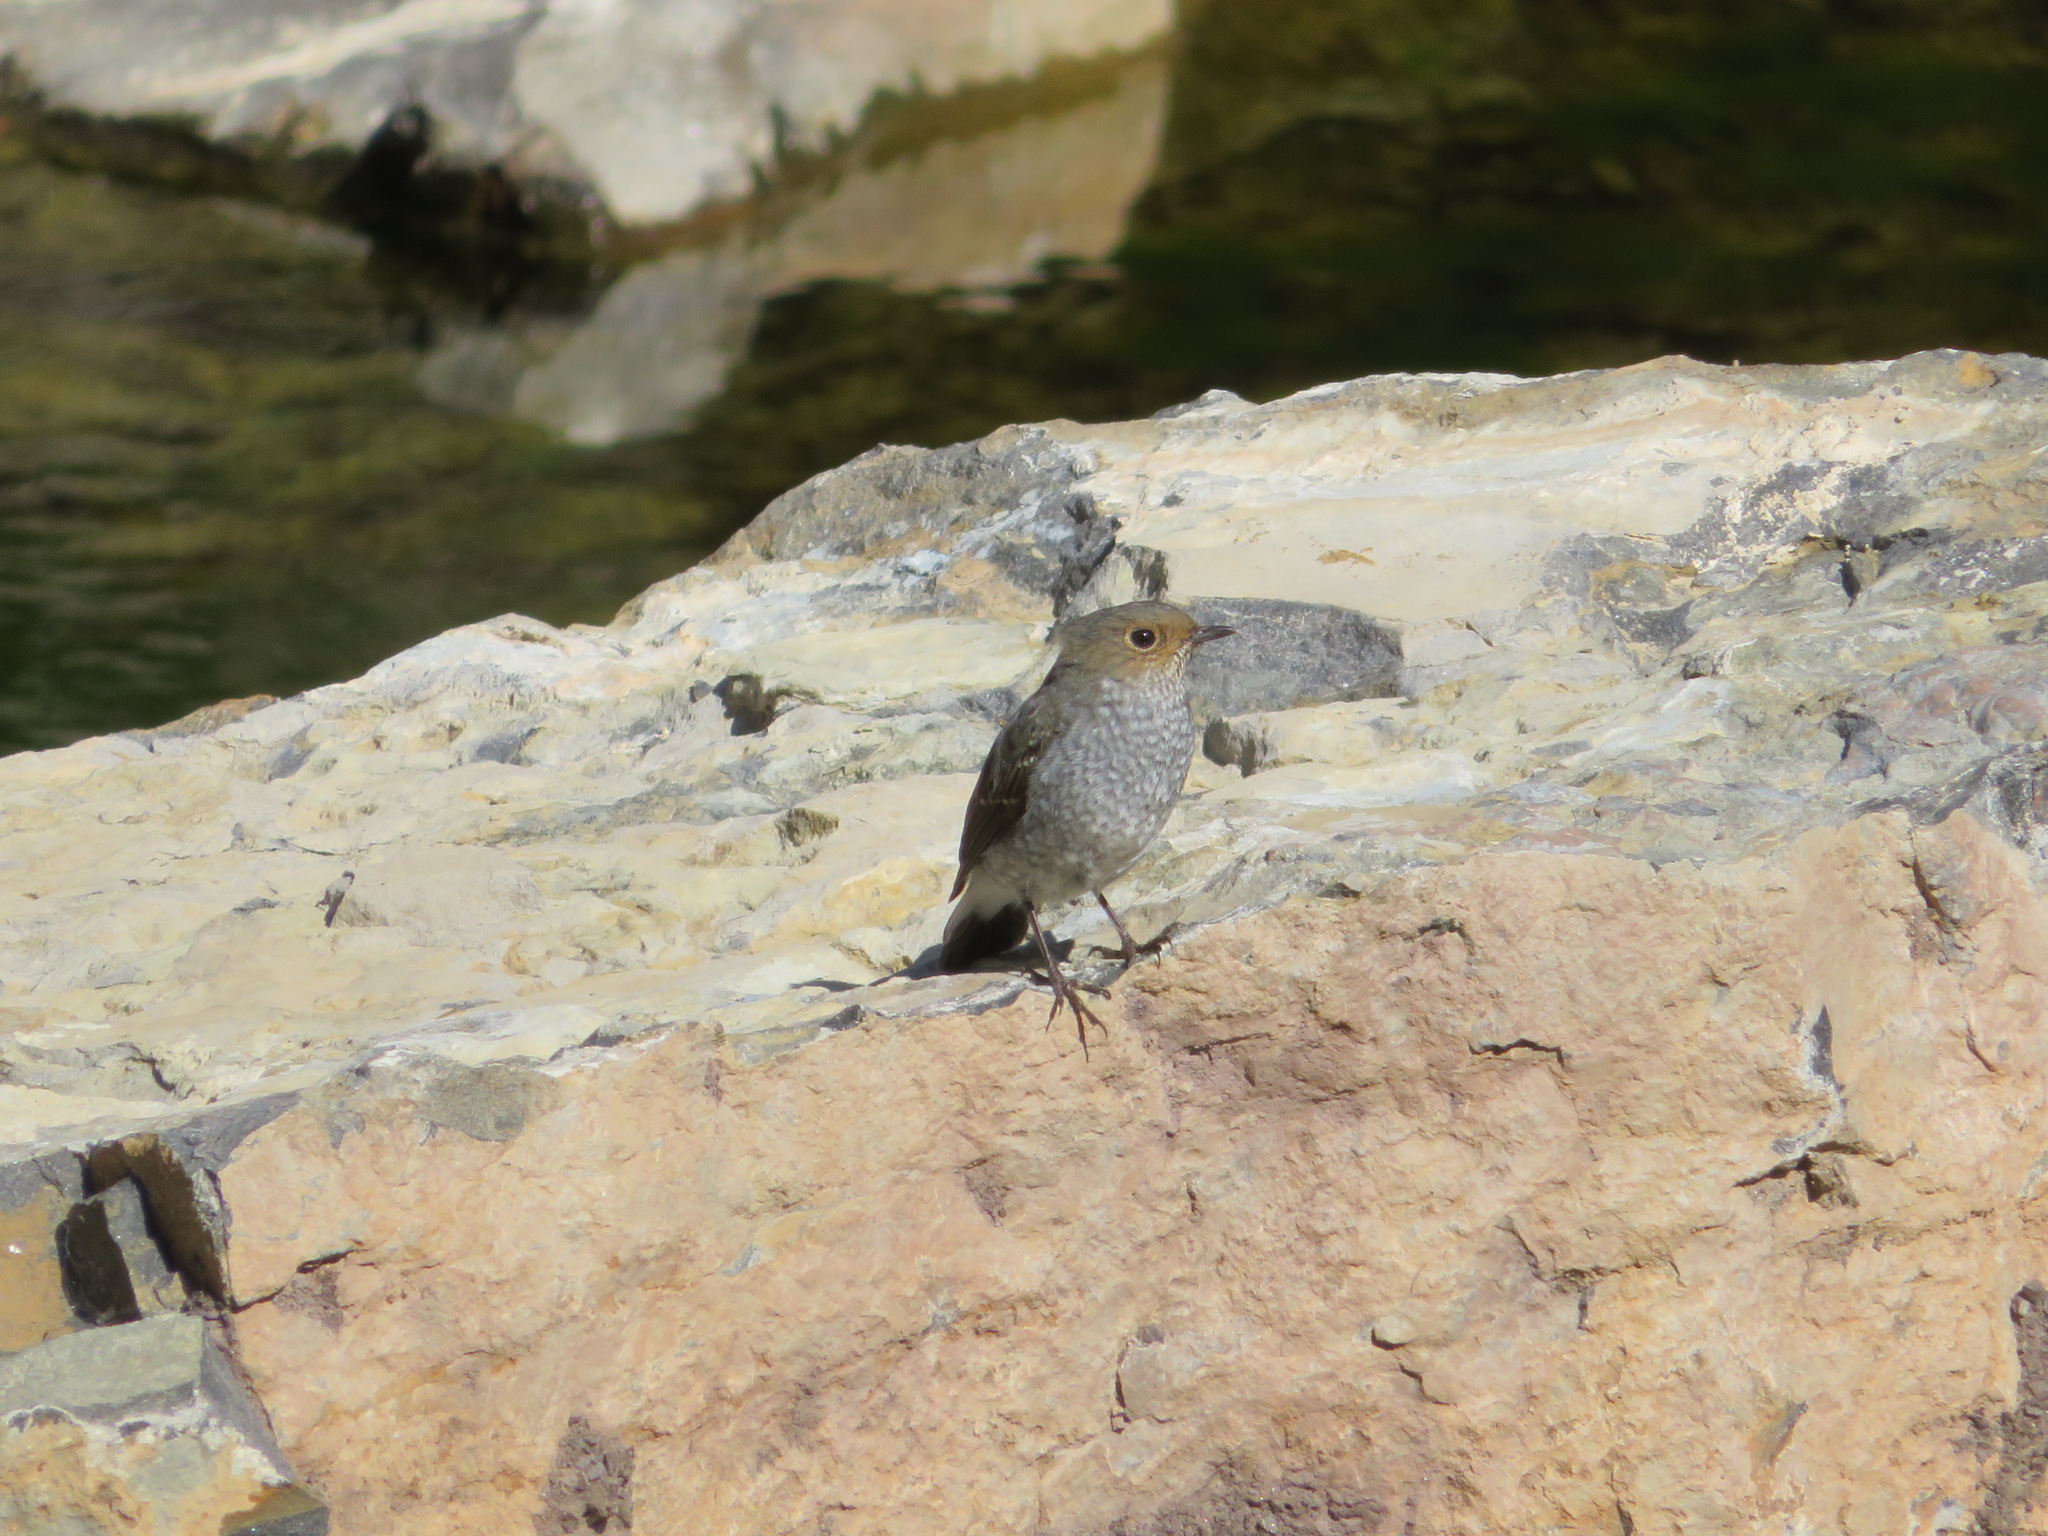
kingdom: Animalia
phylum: Chordata
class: Aves
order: Passeriformes
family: Muscicapidae
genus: Phoenicurus
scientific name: Phoenicurus fuliginosus
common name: Plumbeous water redstart
